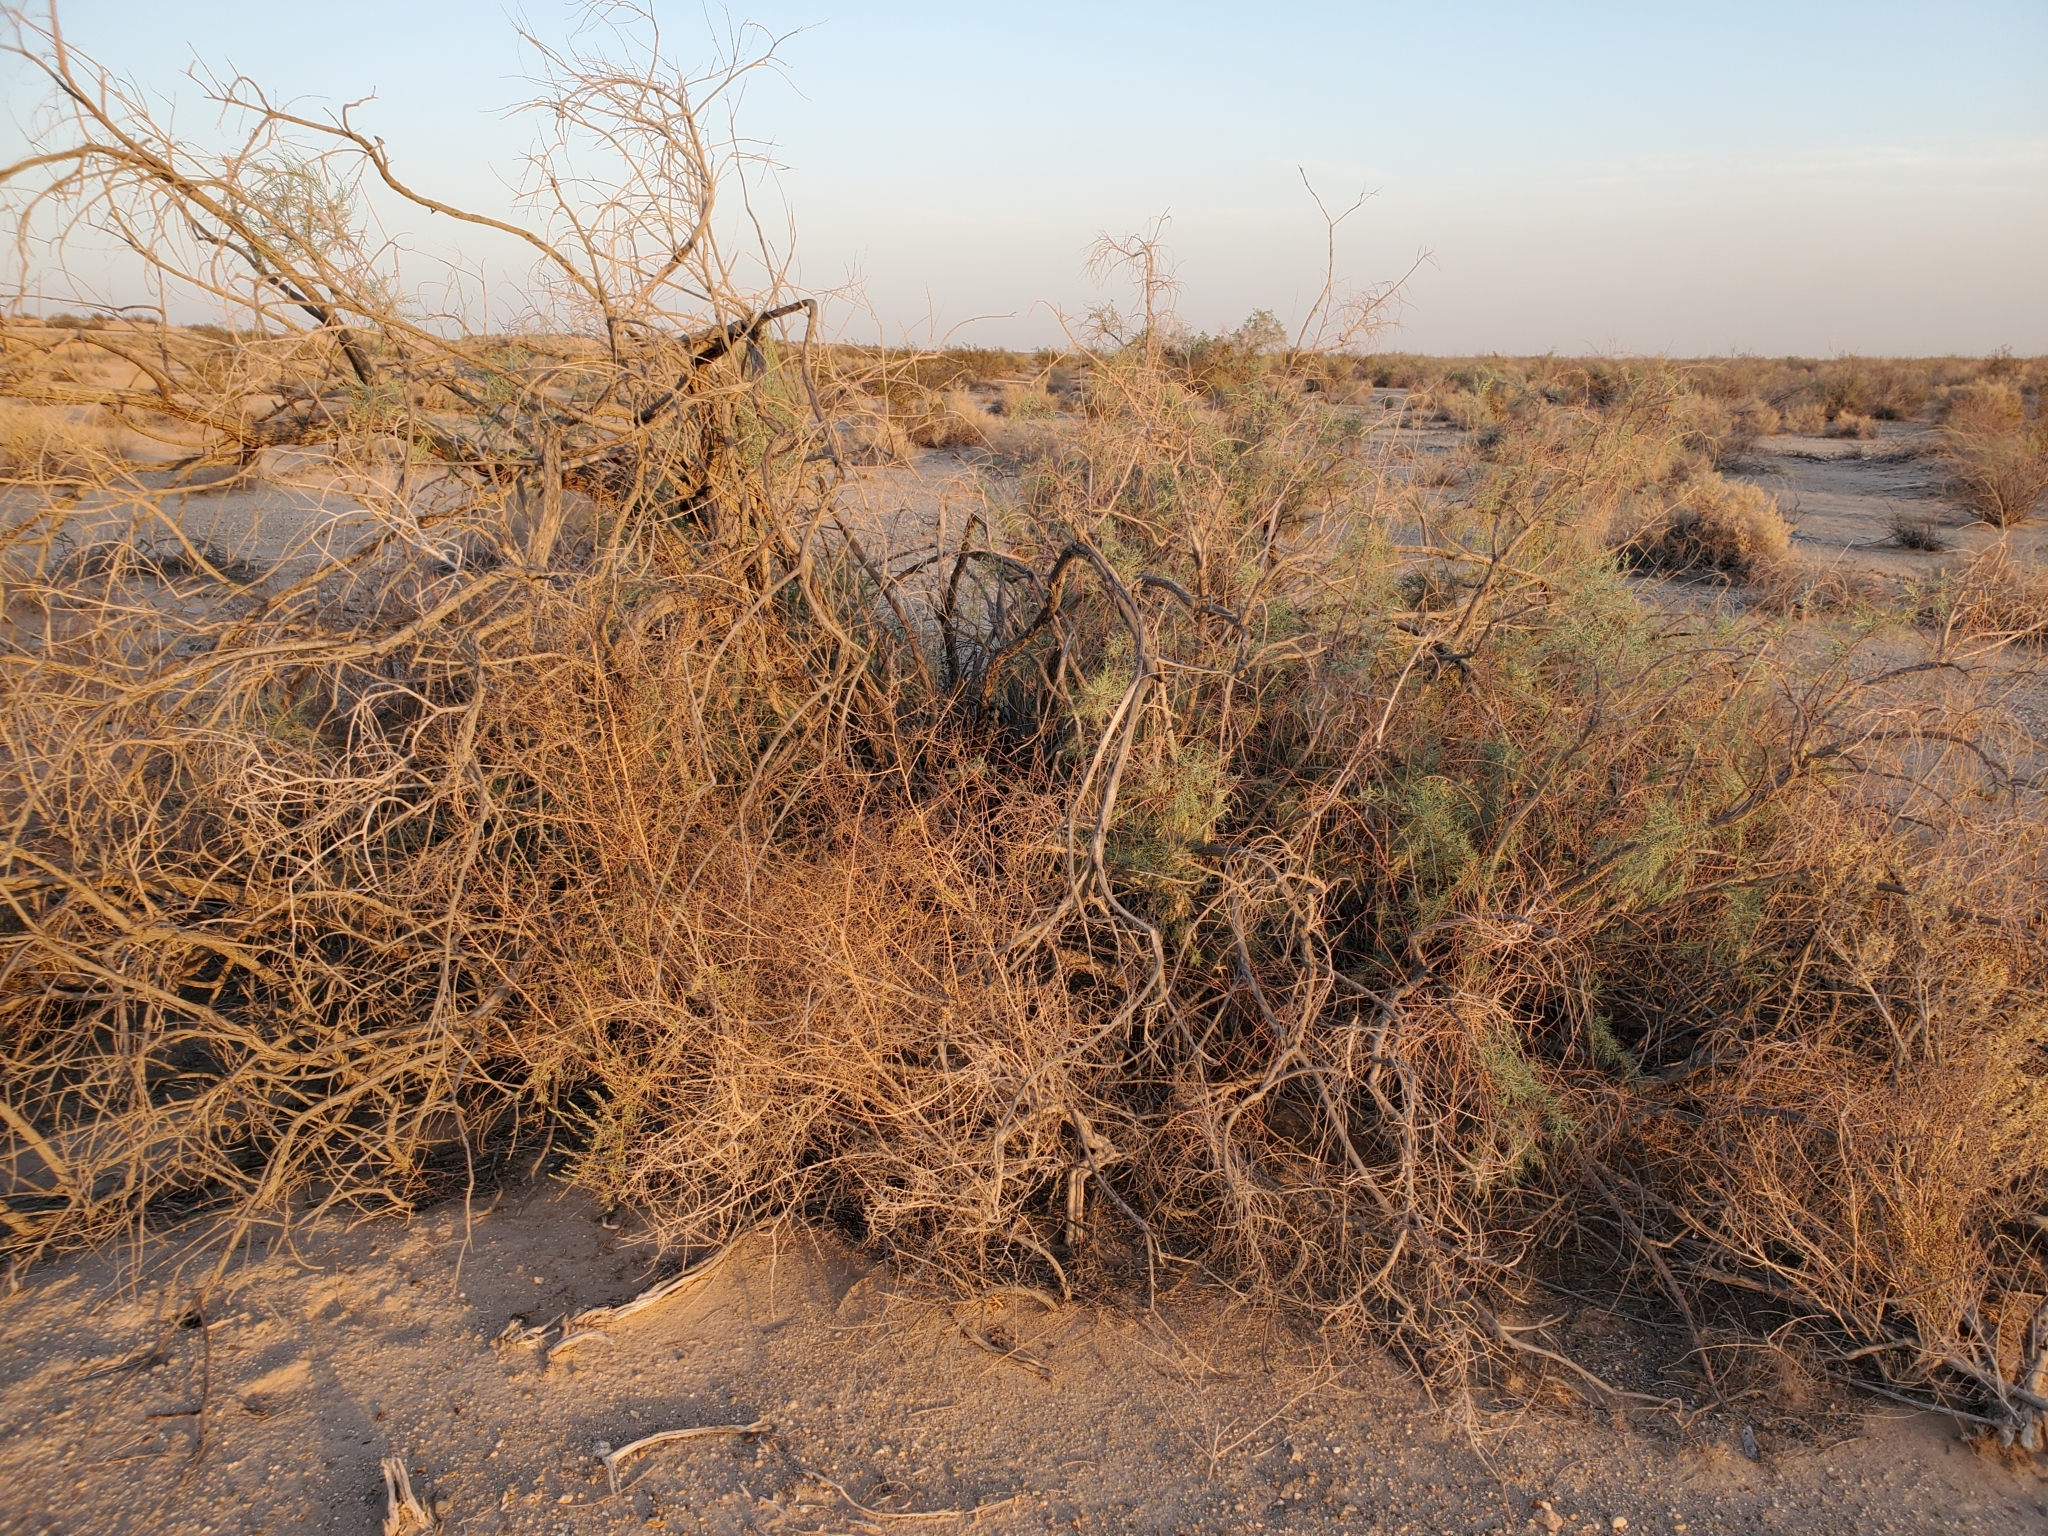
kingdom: Plantae
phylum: Tracheophyta
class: Magnoliopsida
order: Caryophyllales
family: Tamaricaceae
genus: Tamarix
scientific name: Tamarix ramosissima
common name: Pink tamarisk
